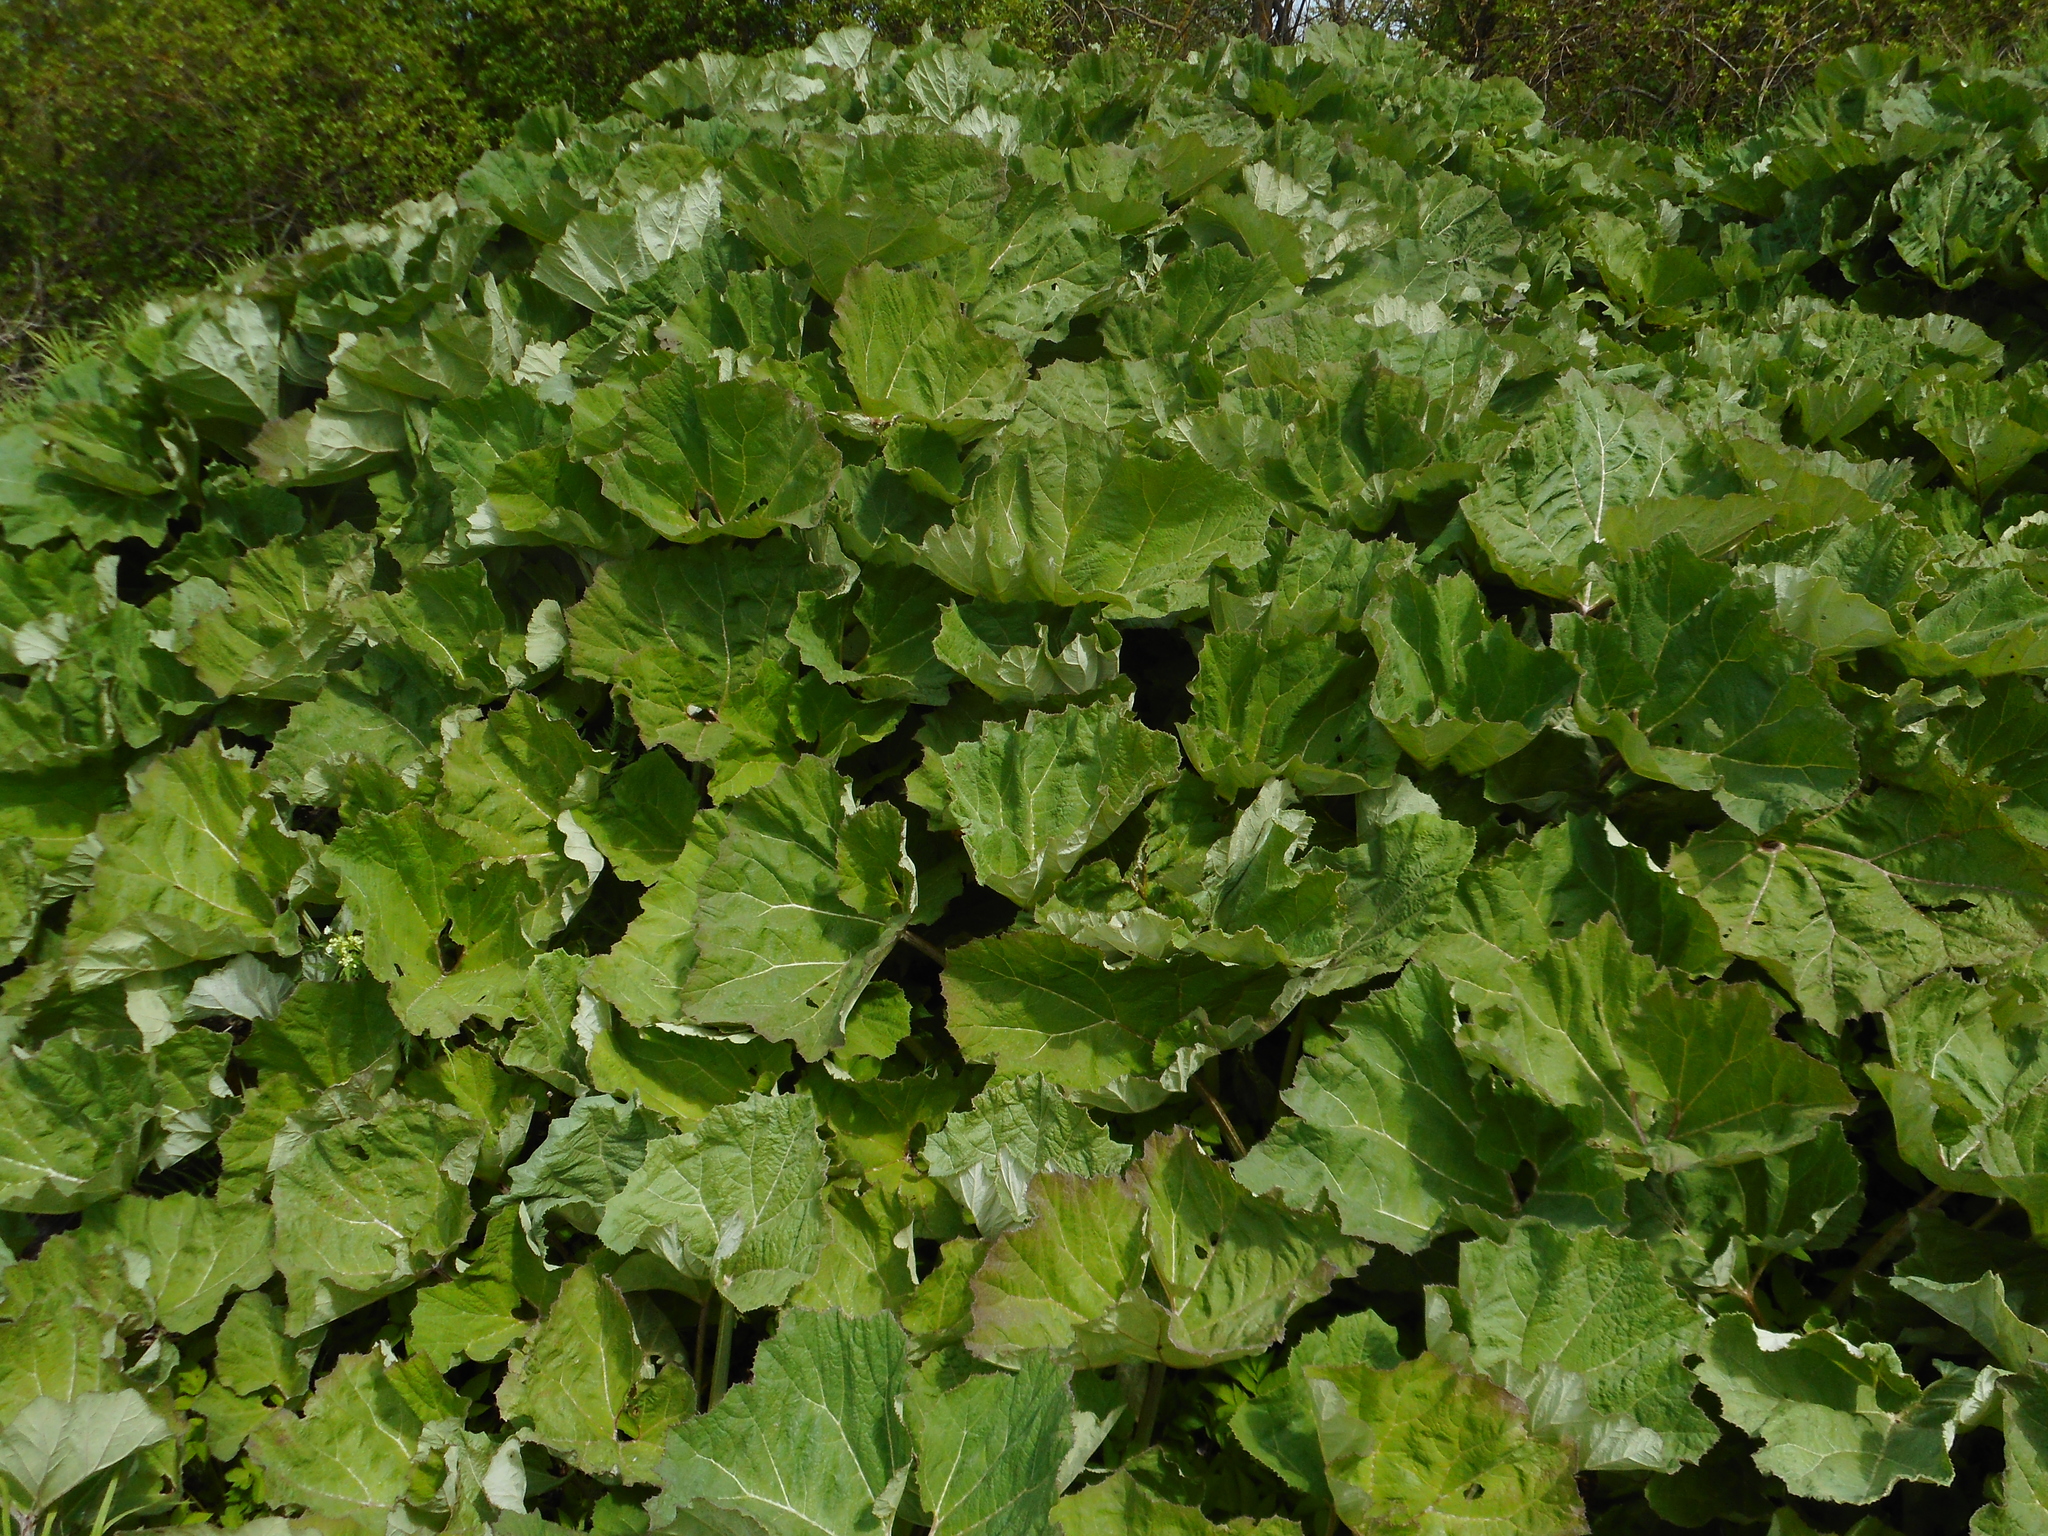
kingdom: Plantae
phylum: Tracheophyta
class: Magnoliopsida
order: Asterales
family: Asteraceae
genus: Petasites
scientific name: Petasites hybridus
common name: Butterbur
